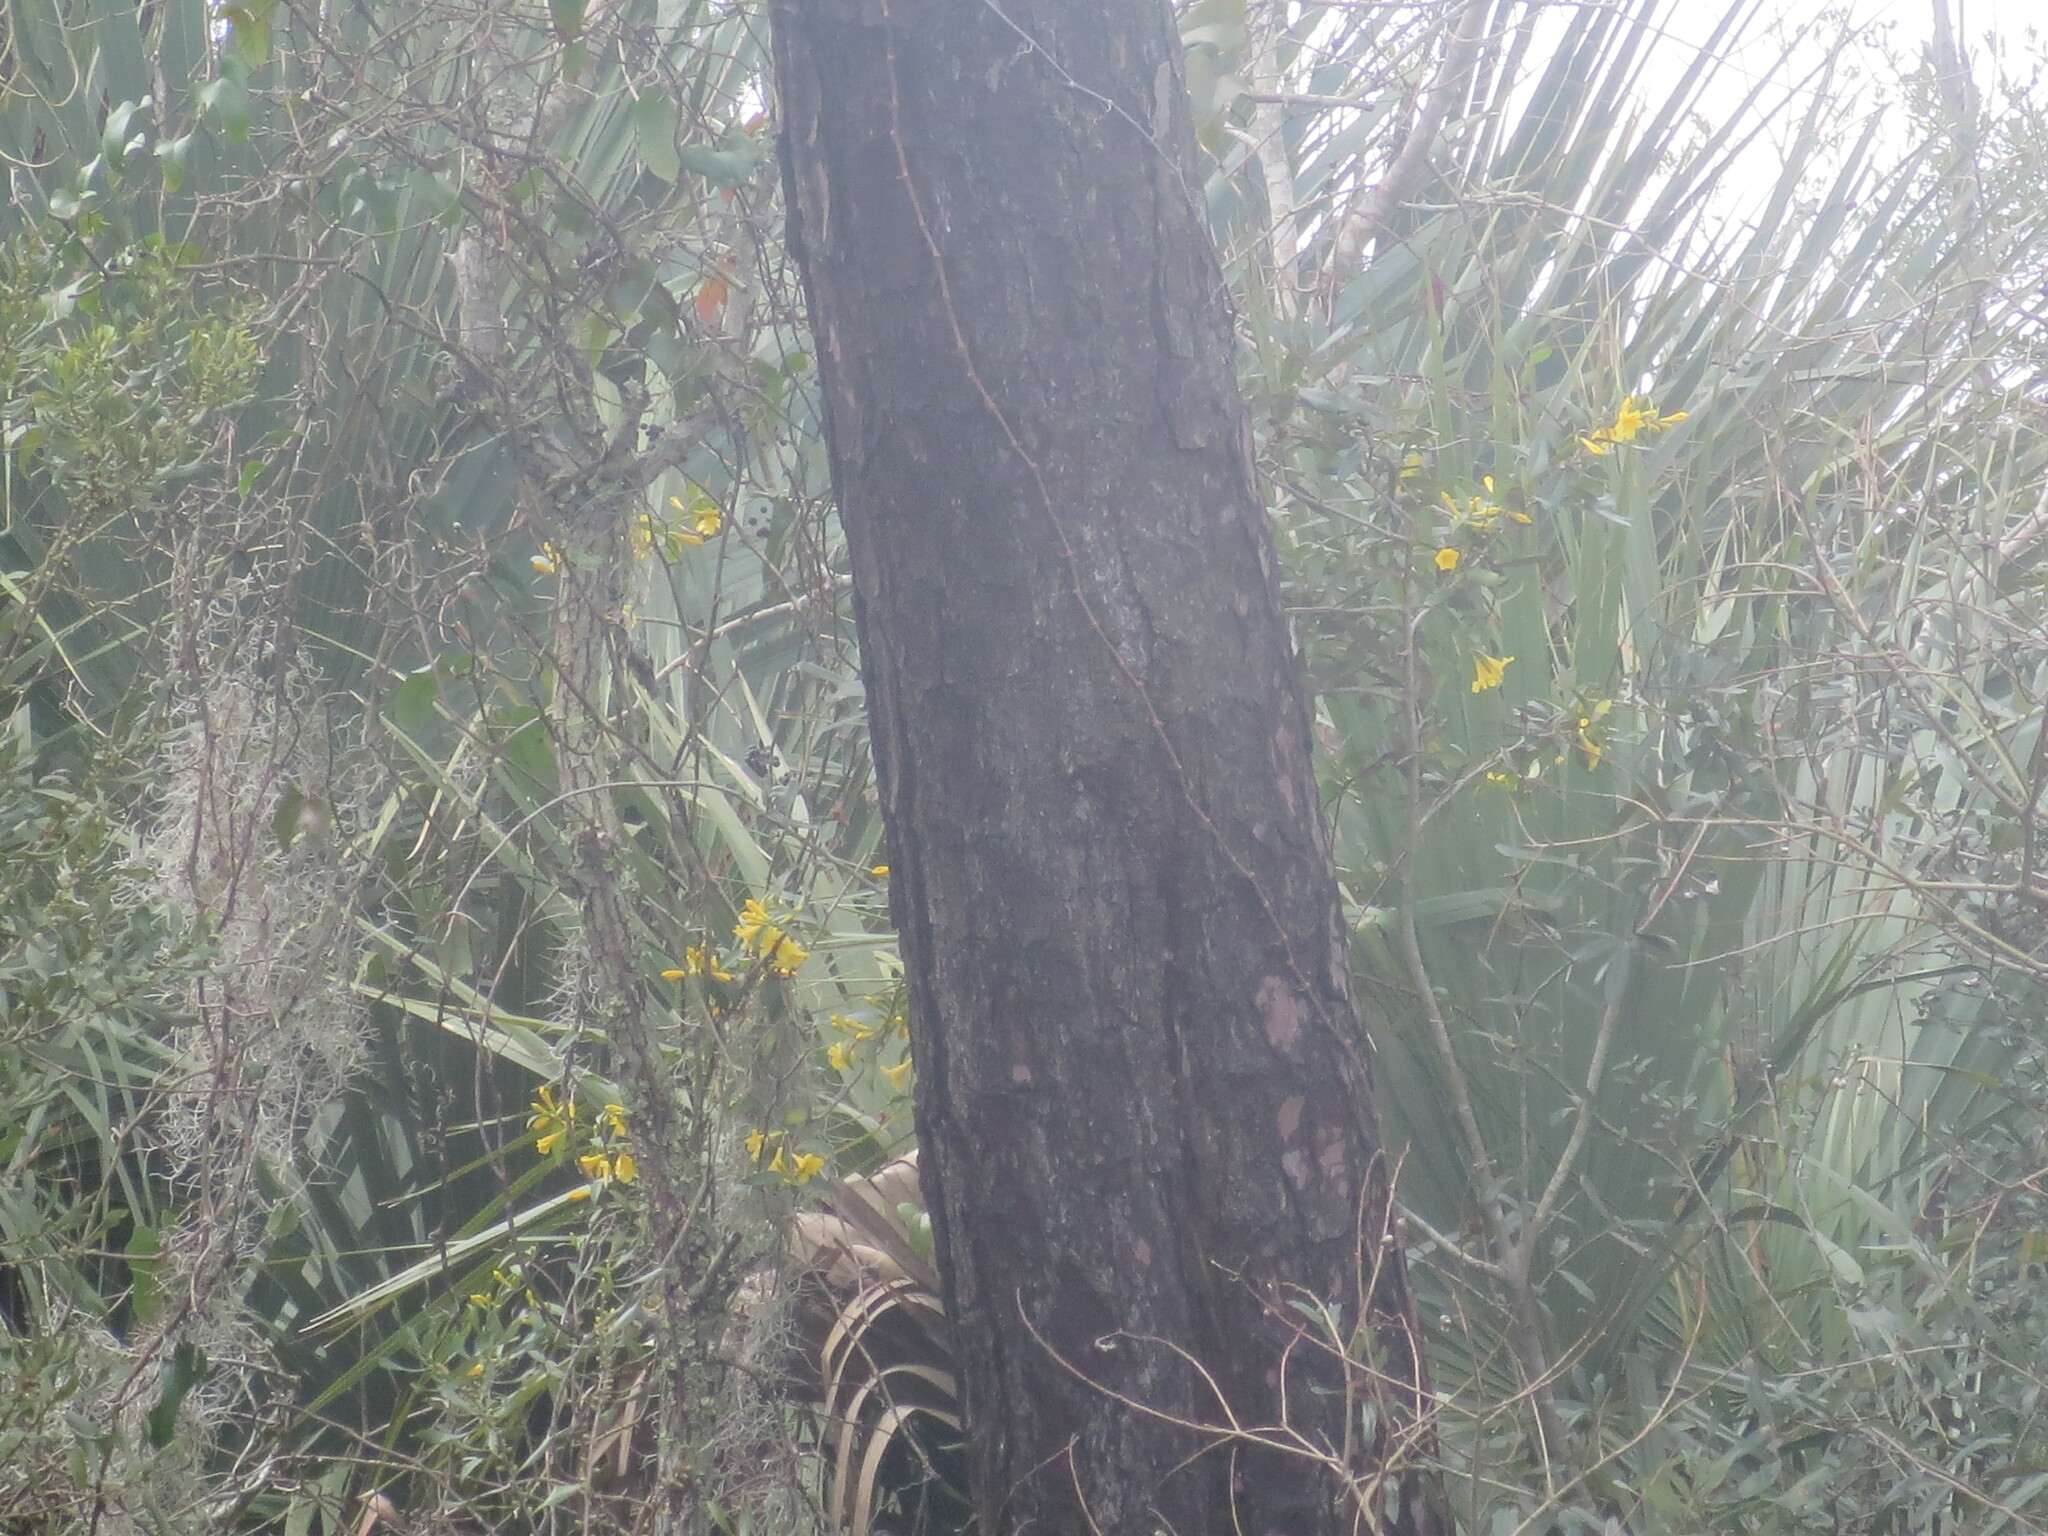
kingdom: Plantae
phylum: Tracheophyta
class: Magnoliopsida
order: Gentianales
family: Gelsemiaceae
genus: Gelsemium
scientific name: Gelsemium sempervirens
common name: Carolina-jasmine
